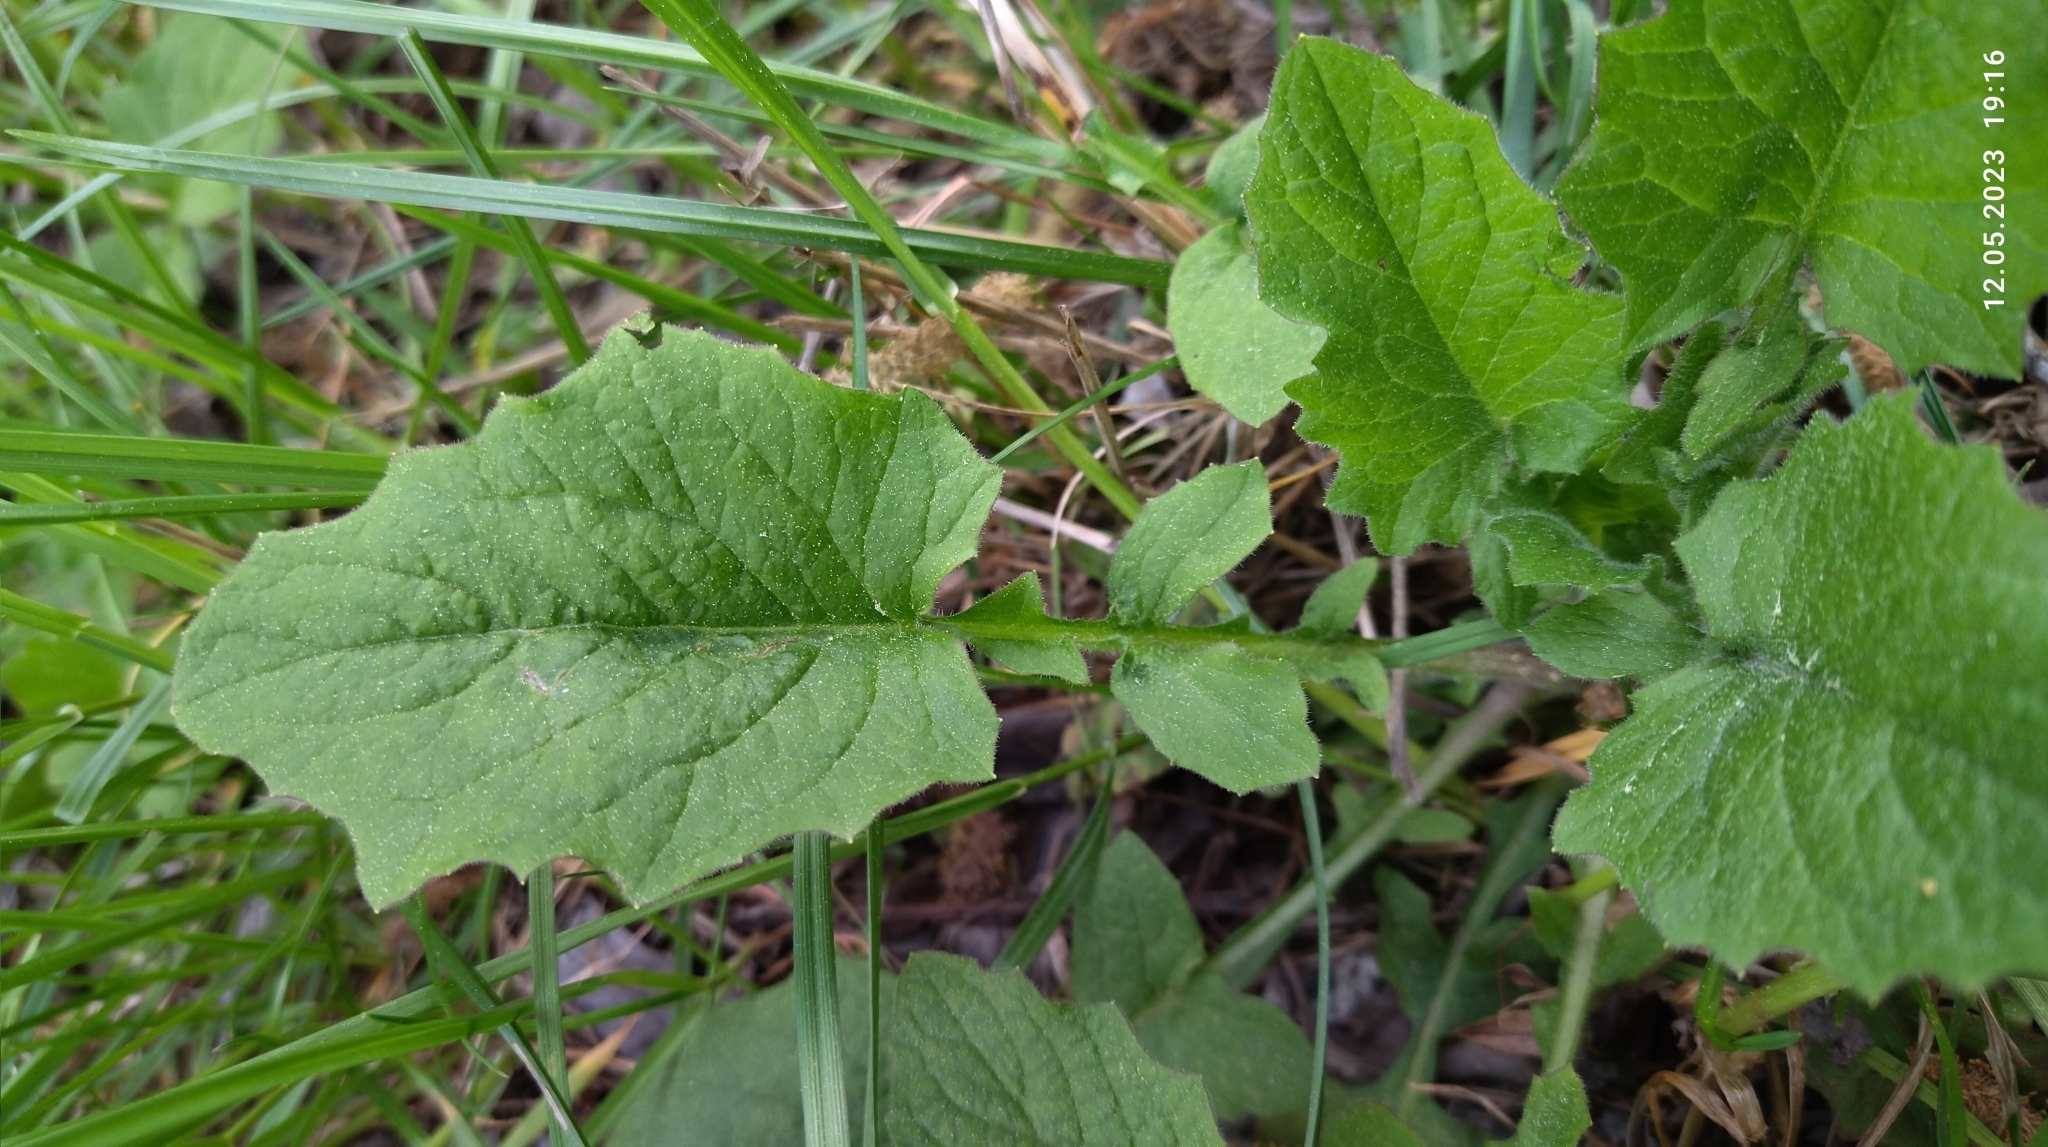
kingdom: Plantae
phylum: Tracheophyta
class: Magnoliopsida
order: Asterales
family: Asteraceae
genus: Lapsana
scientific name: Lapsana communis
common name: Nipplewort
